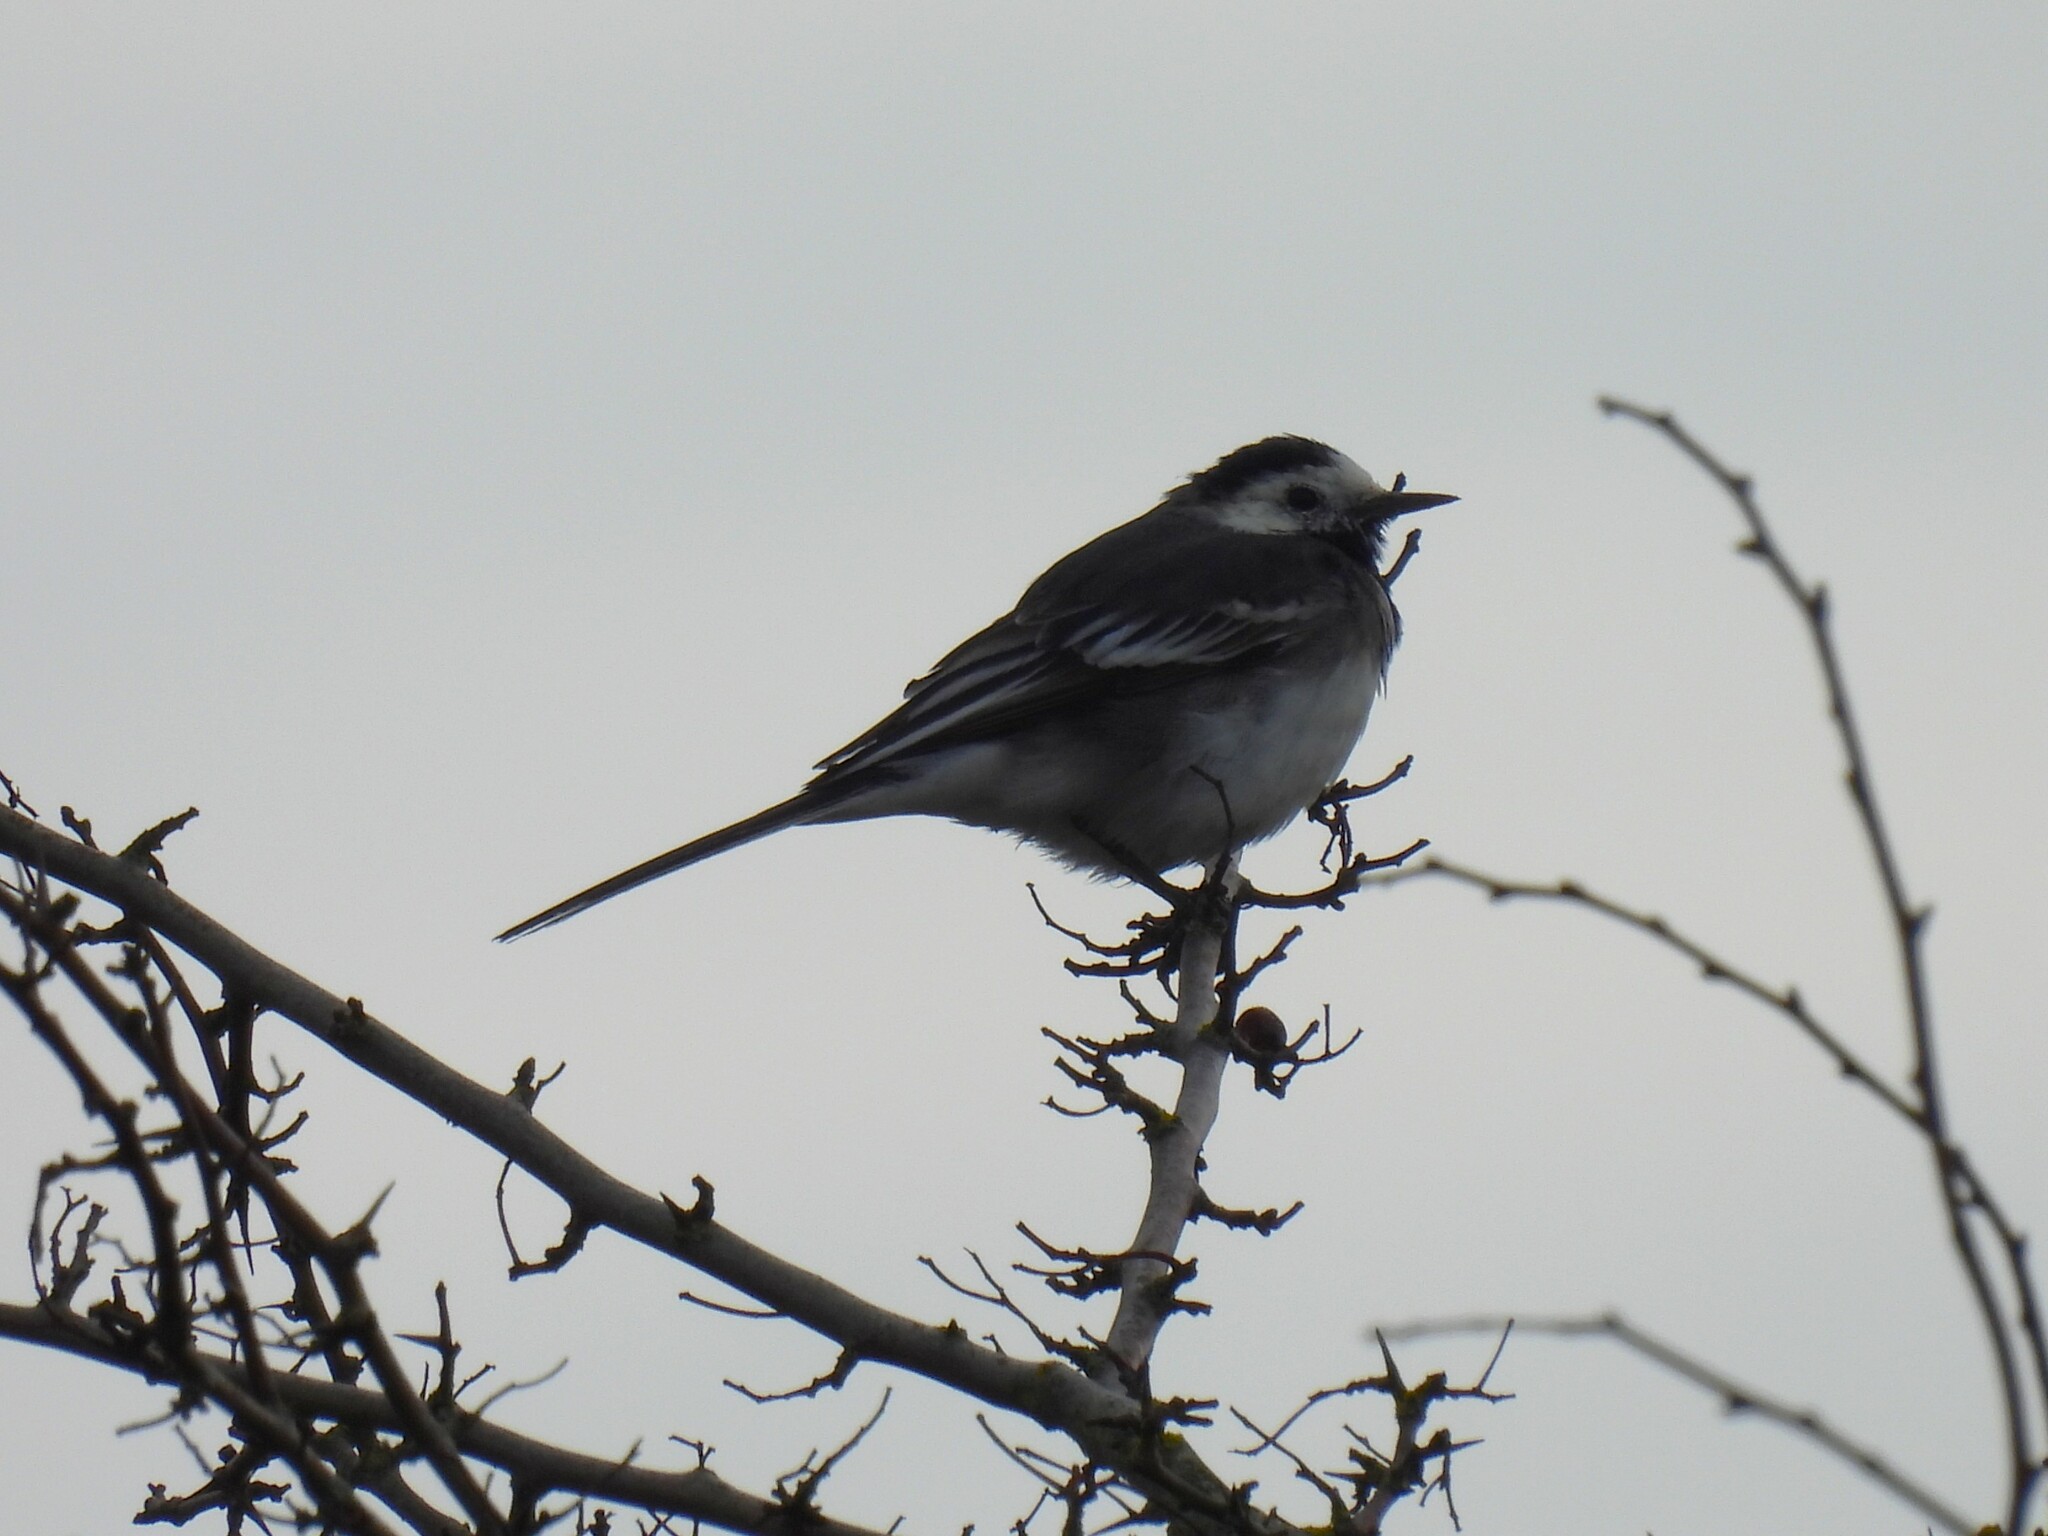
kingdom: Animalia
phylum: Chordata
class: Aves
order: Passeriformes
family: Motacillidae
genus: Motacilla
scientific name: Motacilla alba
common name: White wagtail
